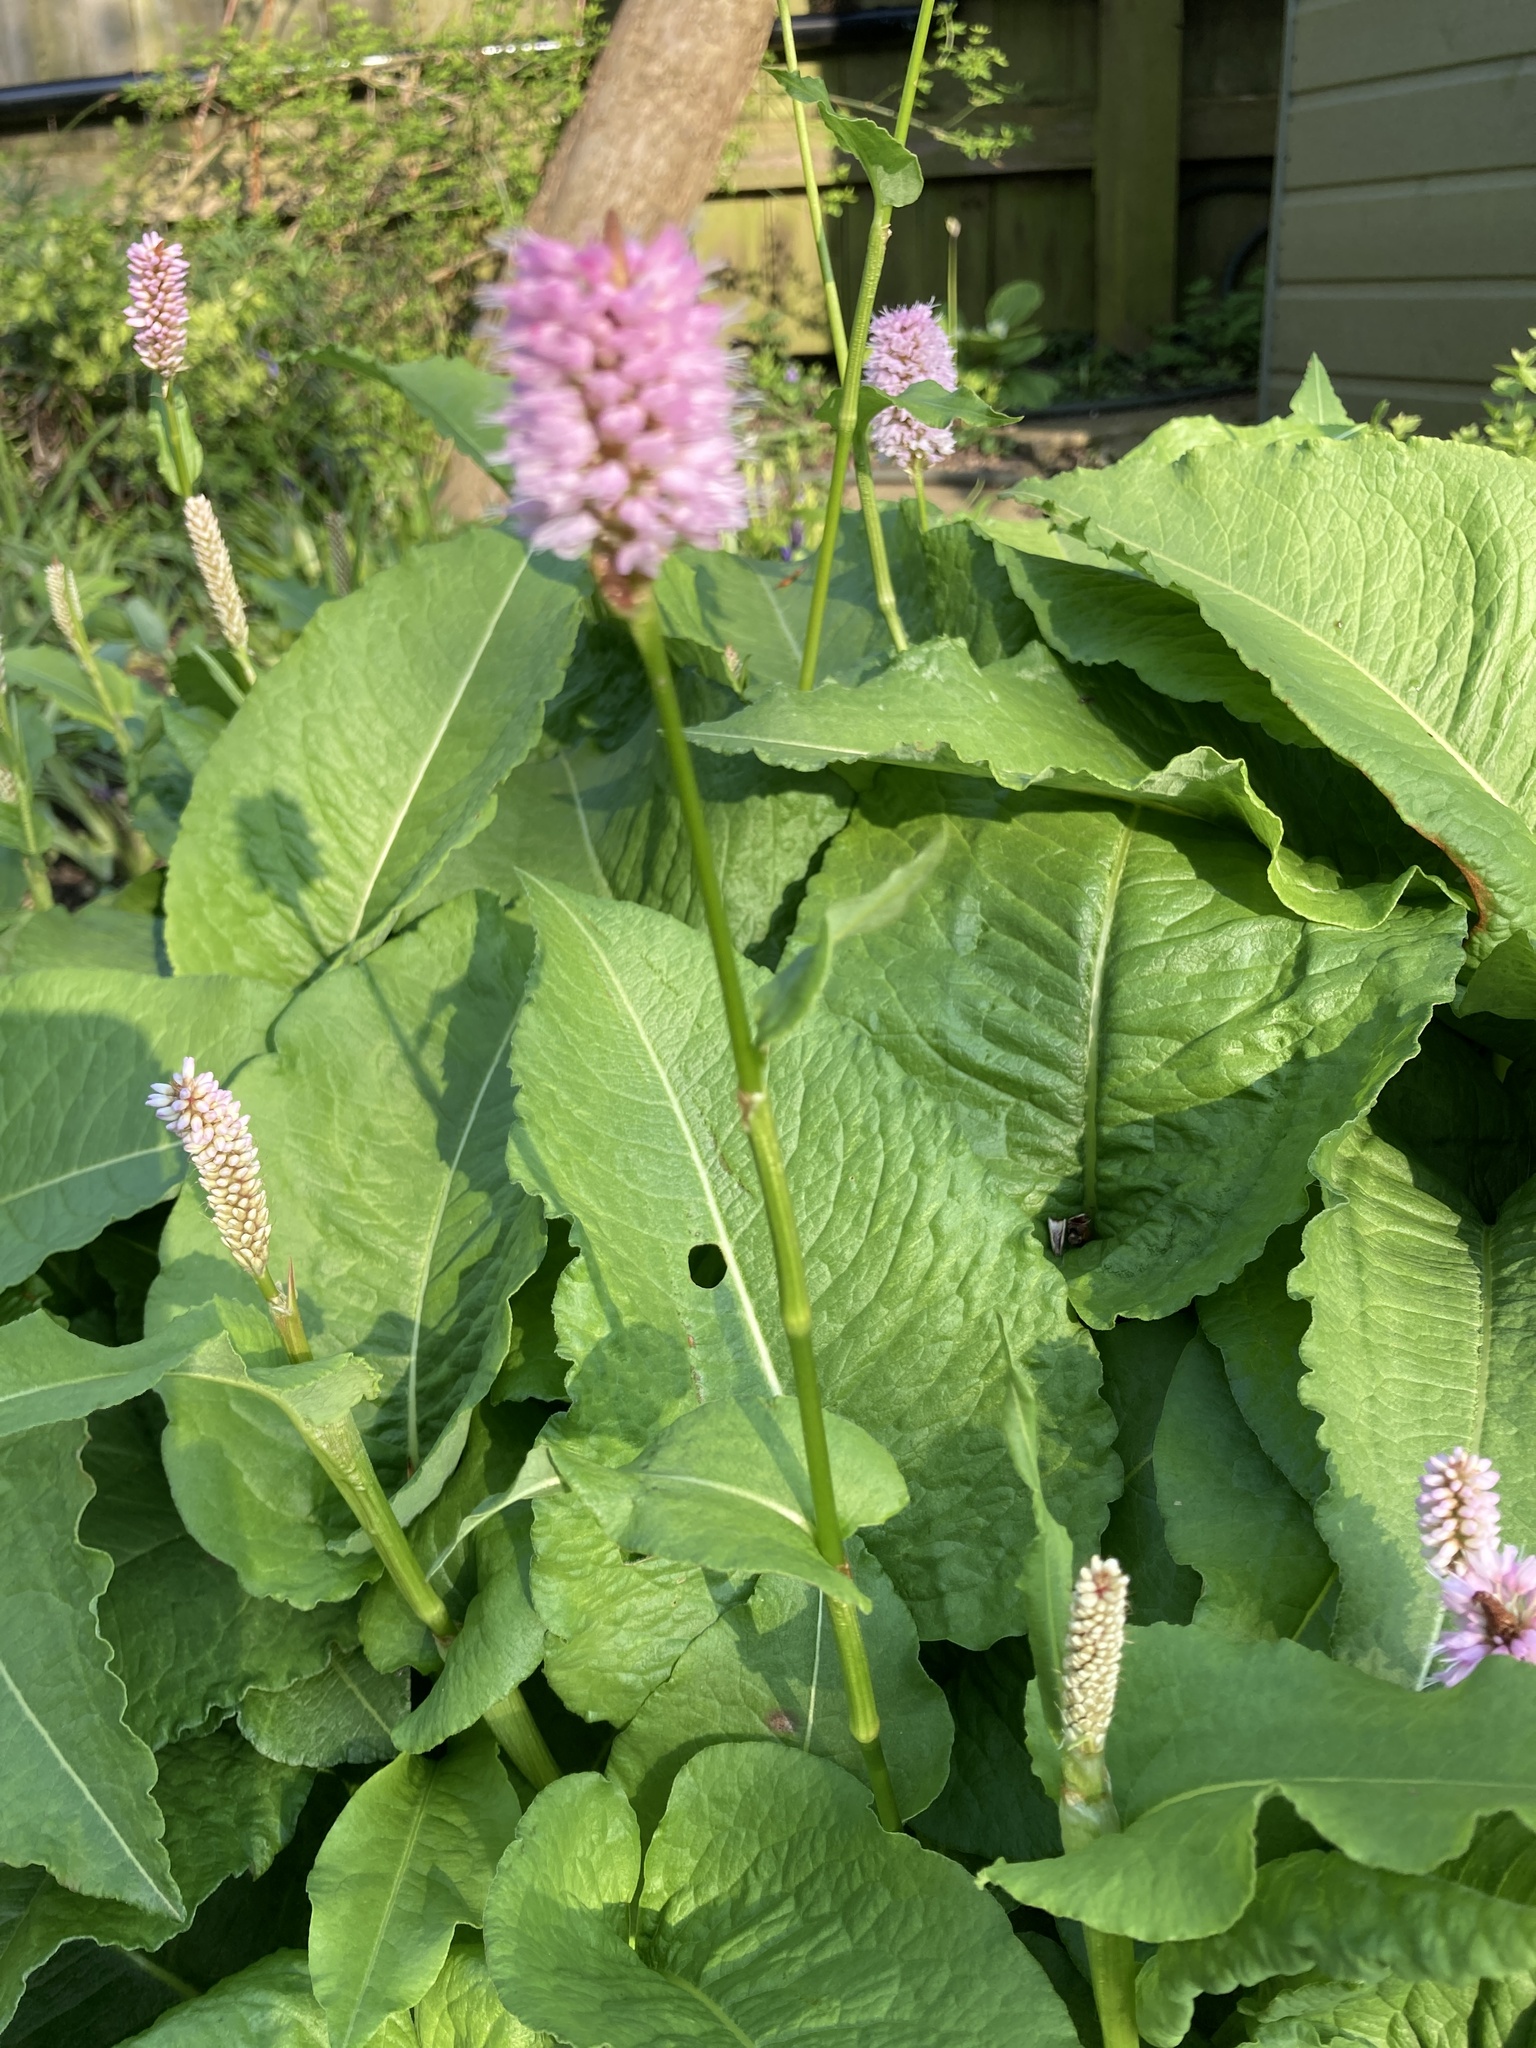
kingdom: Plantae
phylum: Tracheophyta
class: Magnoliopsida
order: Caryophyllales
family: Polygonaceae
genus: Bistorta
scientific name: Bistorta officinalis
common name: Common bistort
